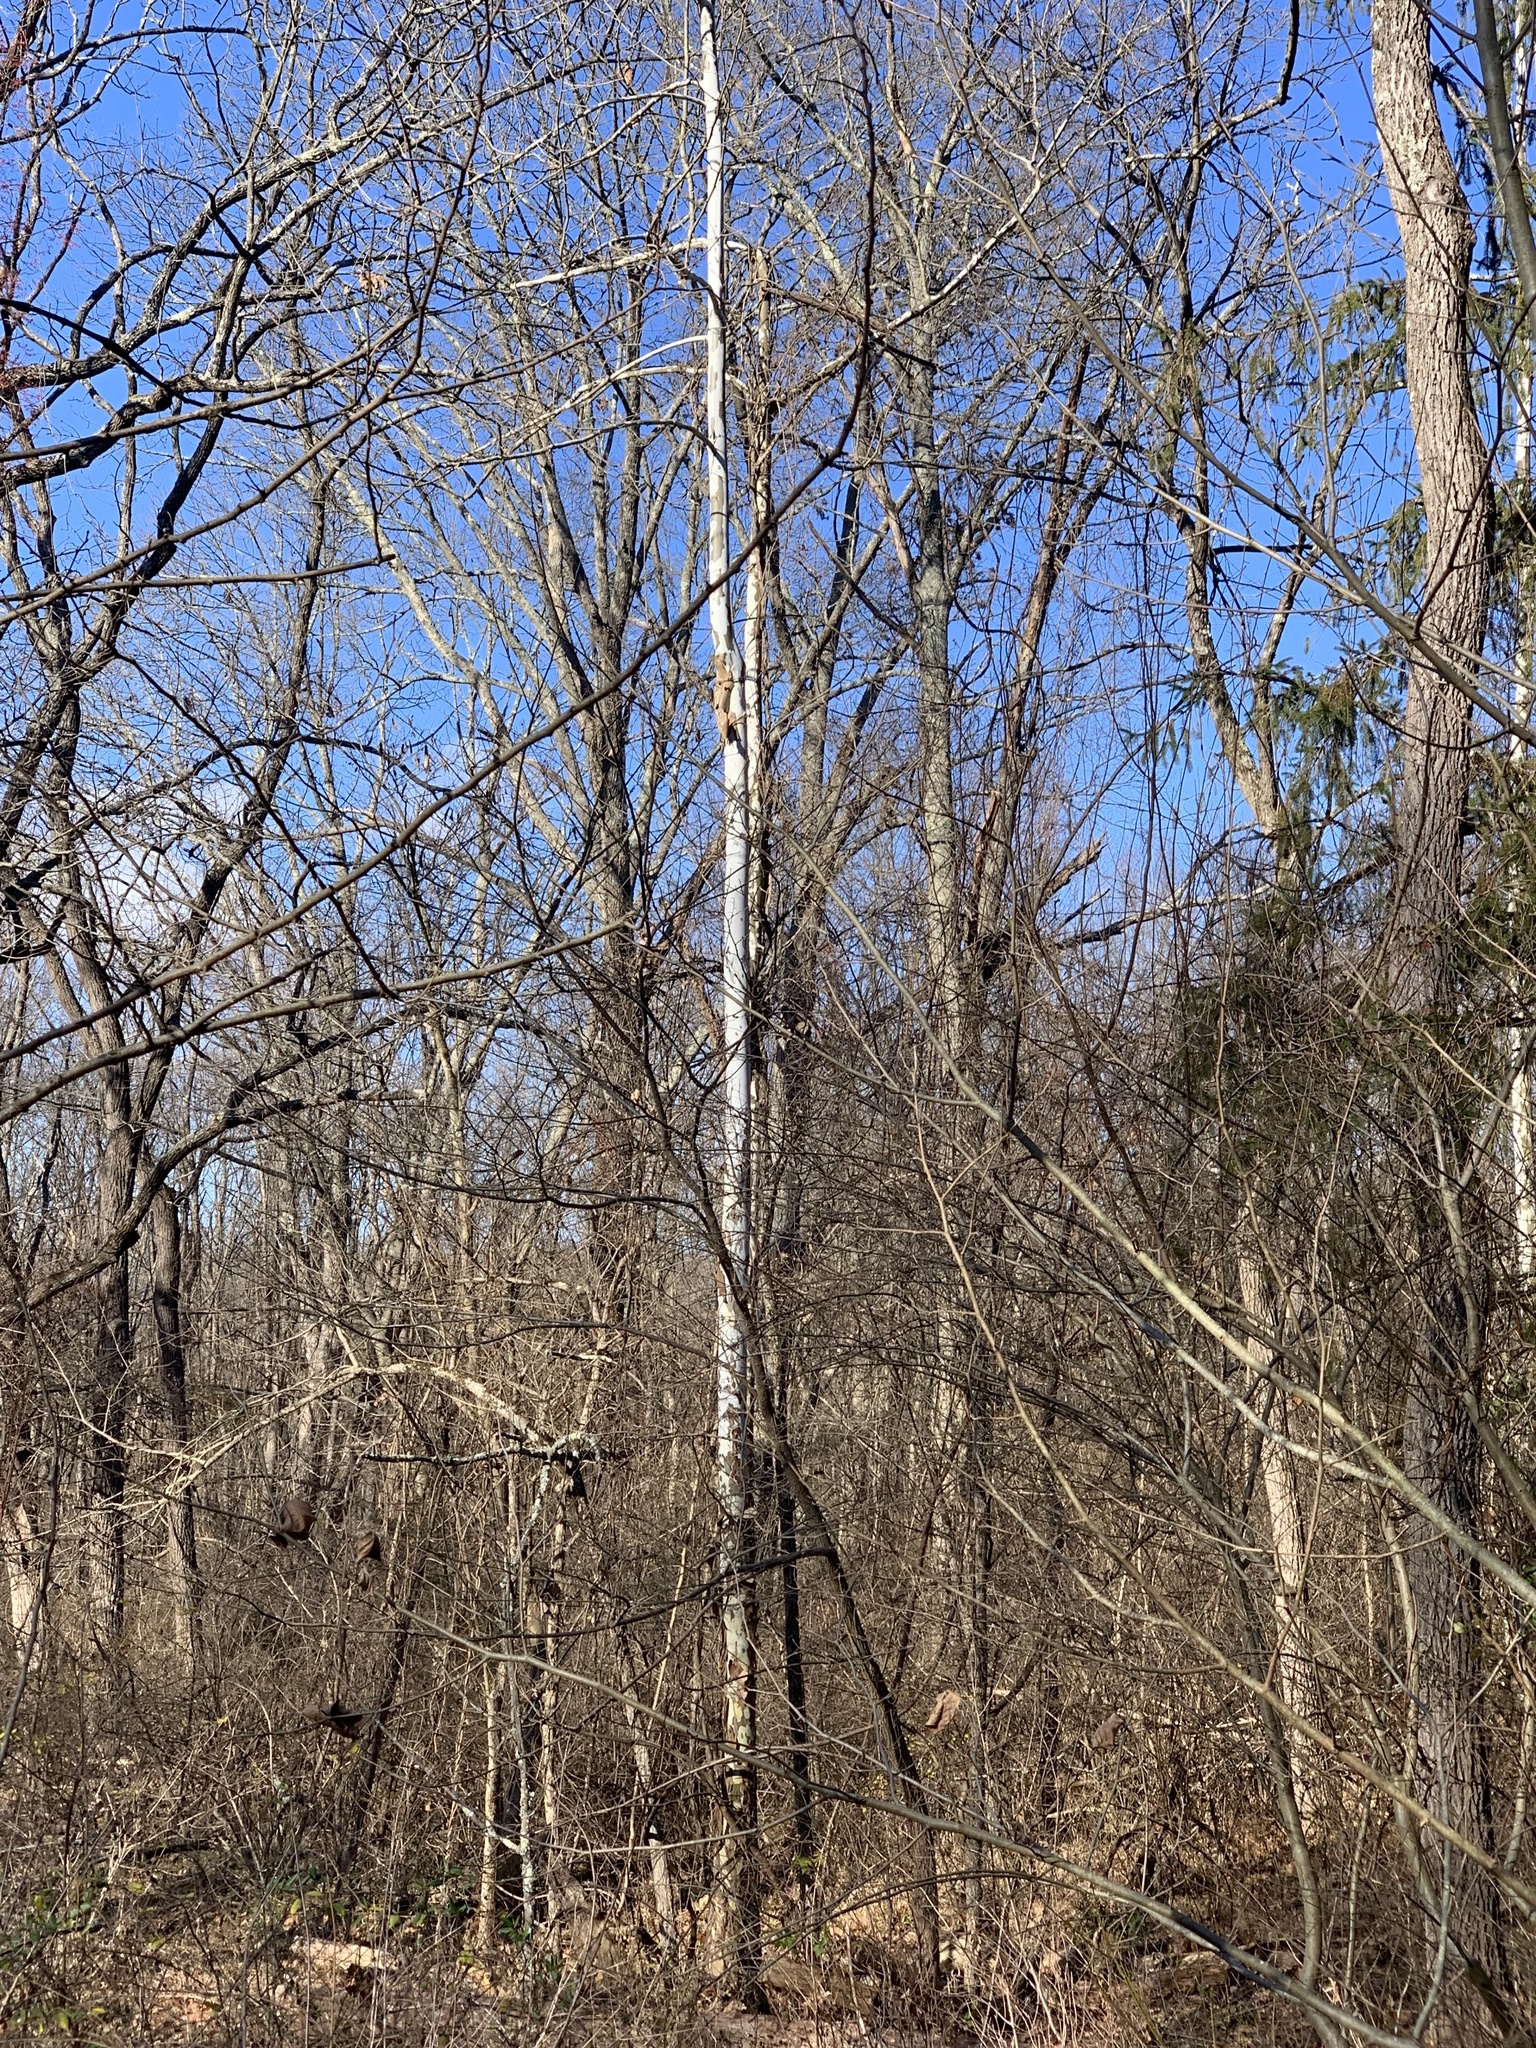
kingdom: Plantae
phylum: Tracheophyta
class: Magnoliopsida
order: Proteales
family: Platanaceae
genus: Platanus
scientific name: Platanus occidentalis
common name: American sycamore
